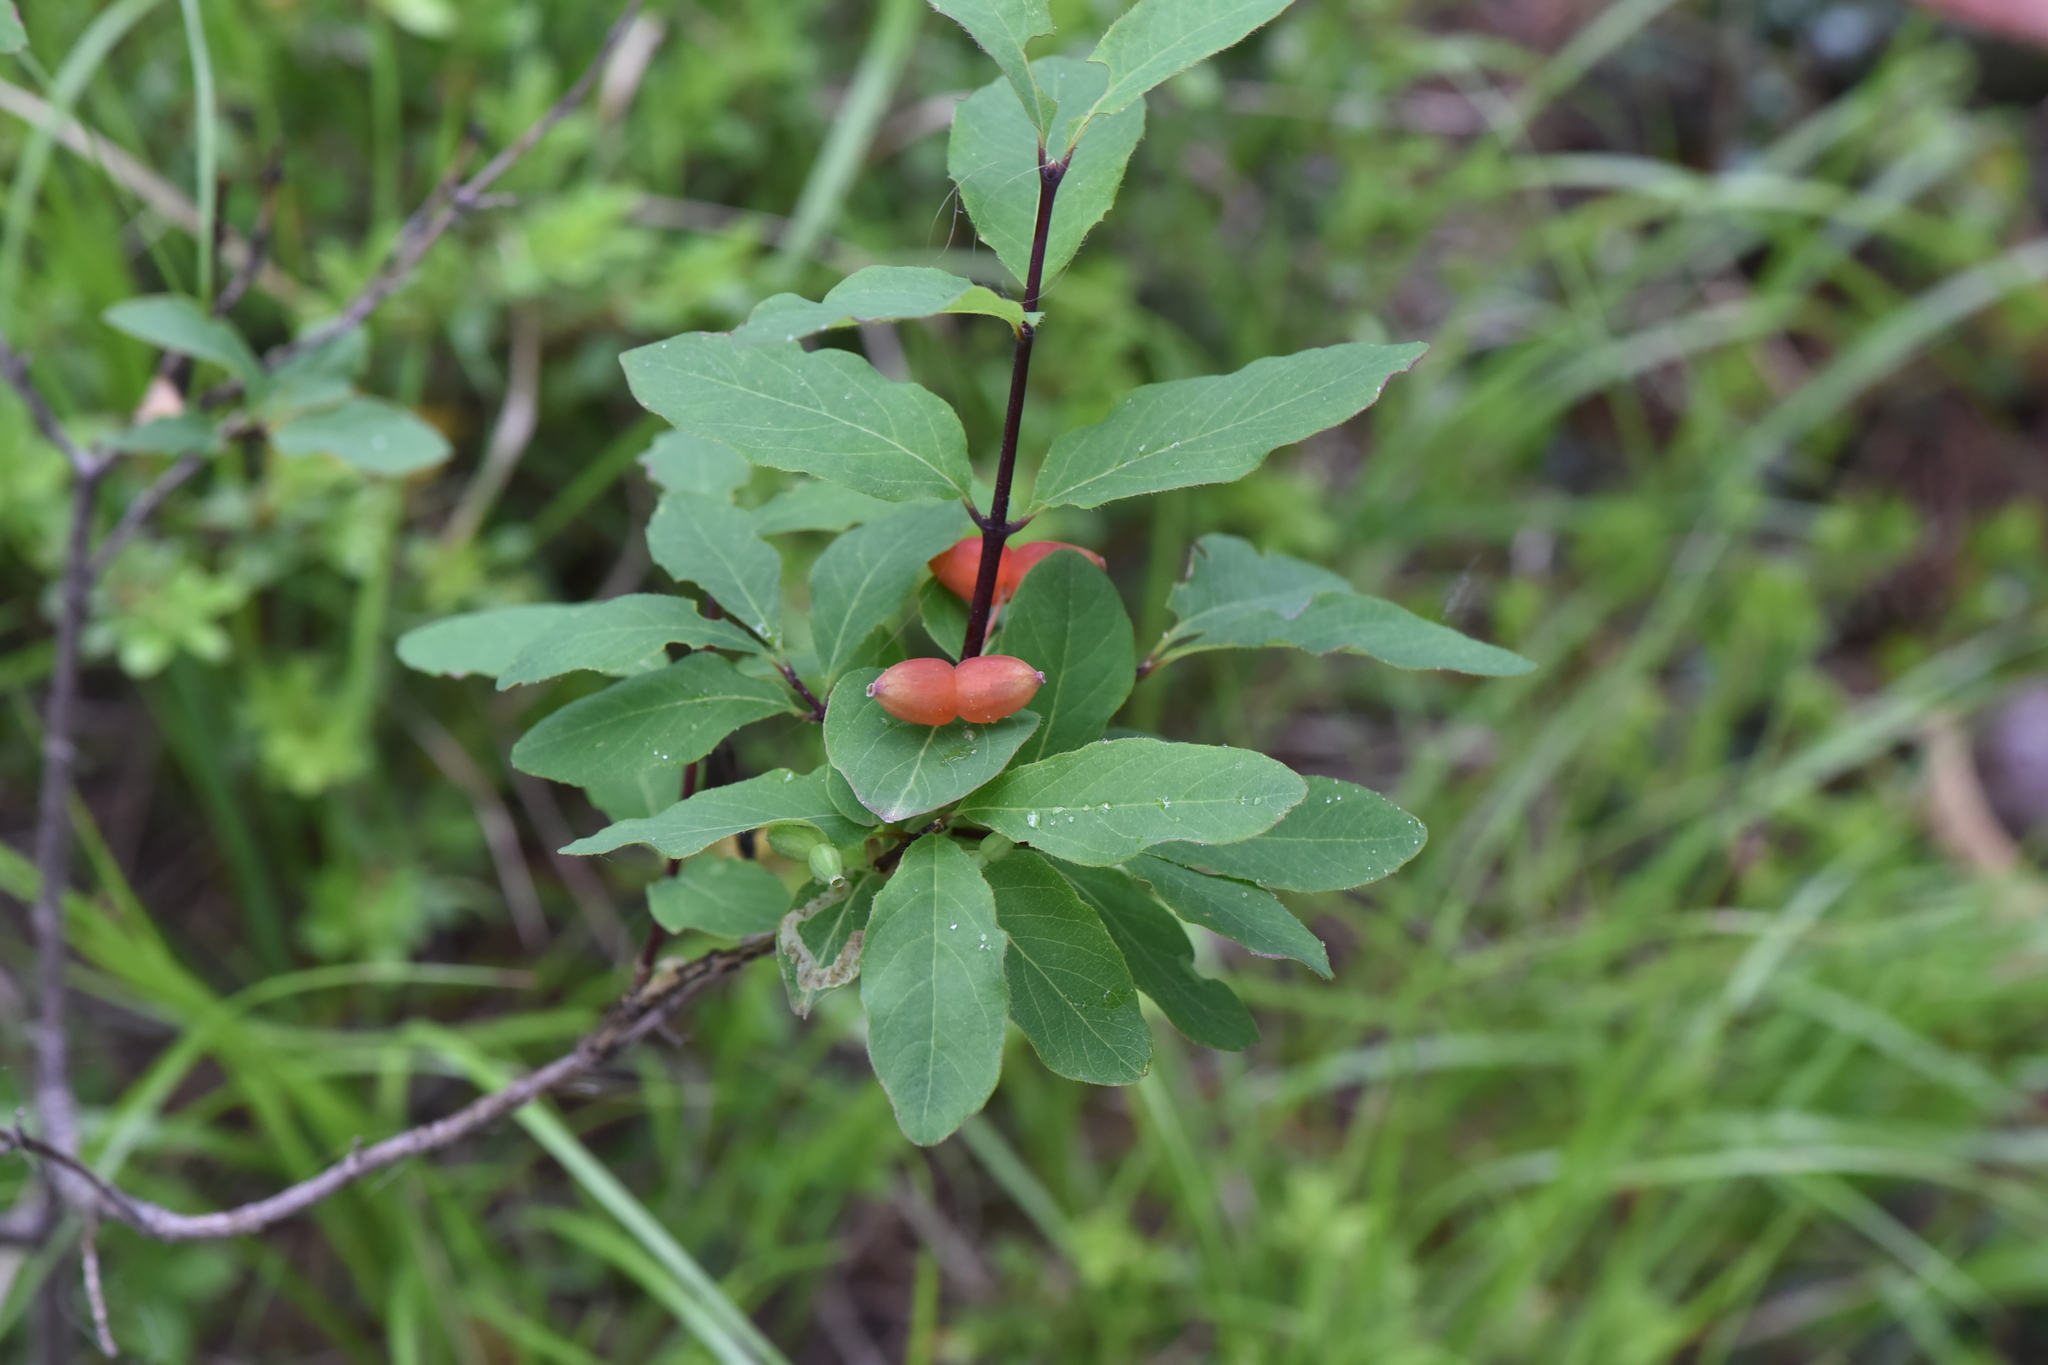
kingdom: Plantae
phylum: Tracheophyta
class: Magnoliopsida
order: Dipsacales
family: Caprifoliaceae
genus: Lonicera
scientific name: Lonicera utahensis
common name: Utah honeysuckle
